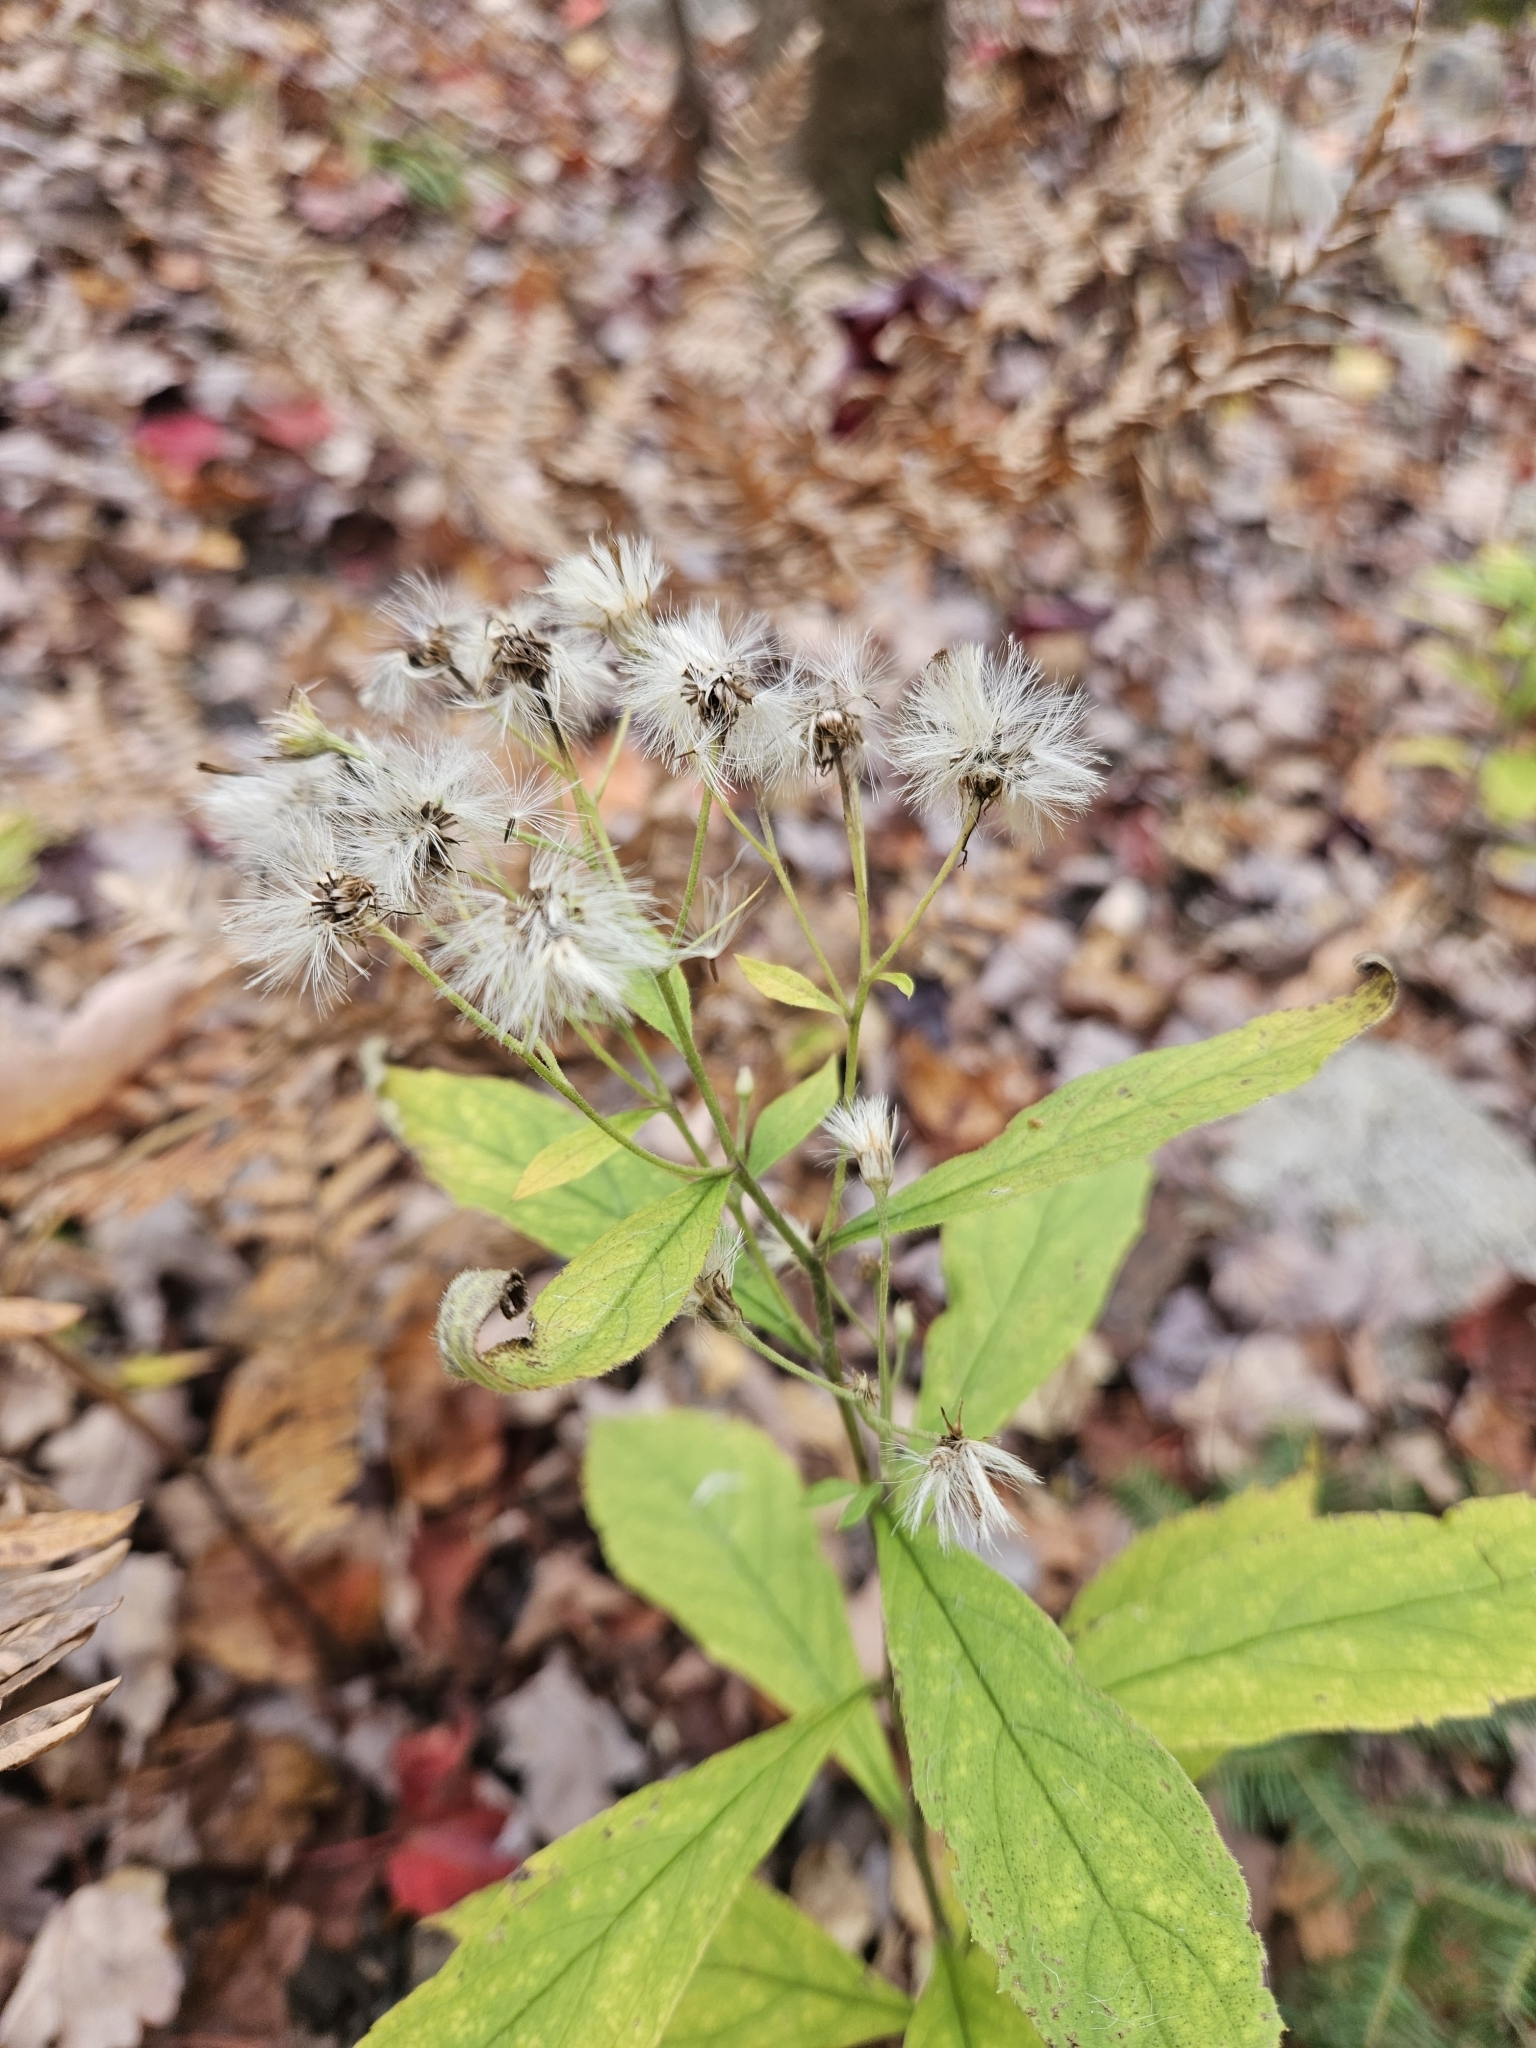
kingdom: Plantae
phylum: Tracheophyta
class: Magnoliopsida
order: Asterales
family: Asteraceae
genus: Oclemena
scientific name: Oclemena acuminata
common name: Mountain aster
